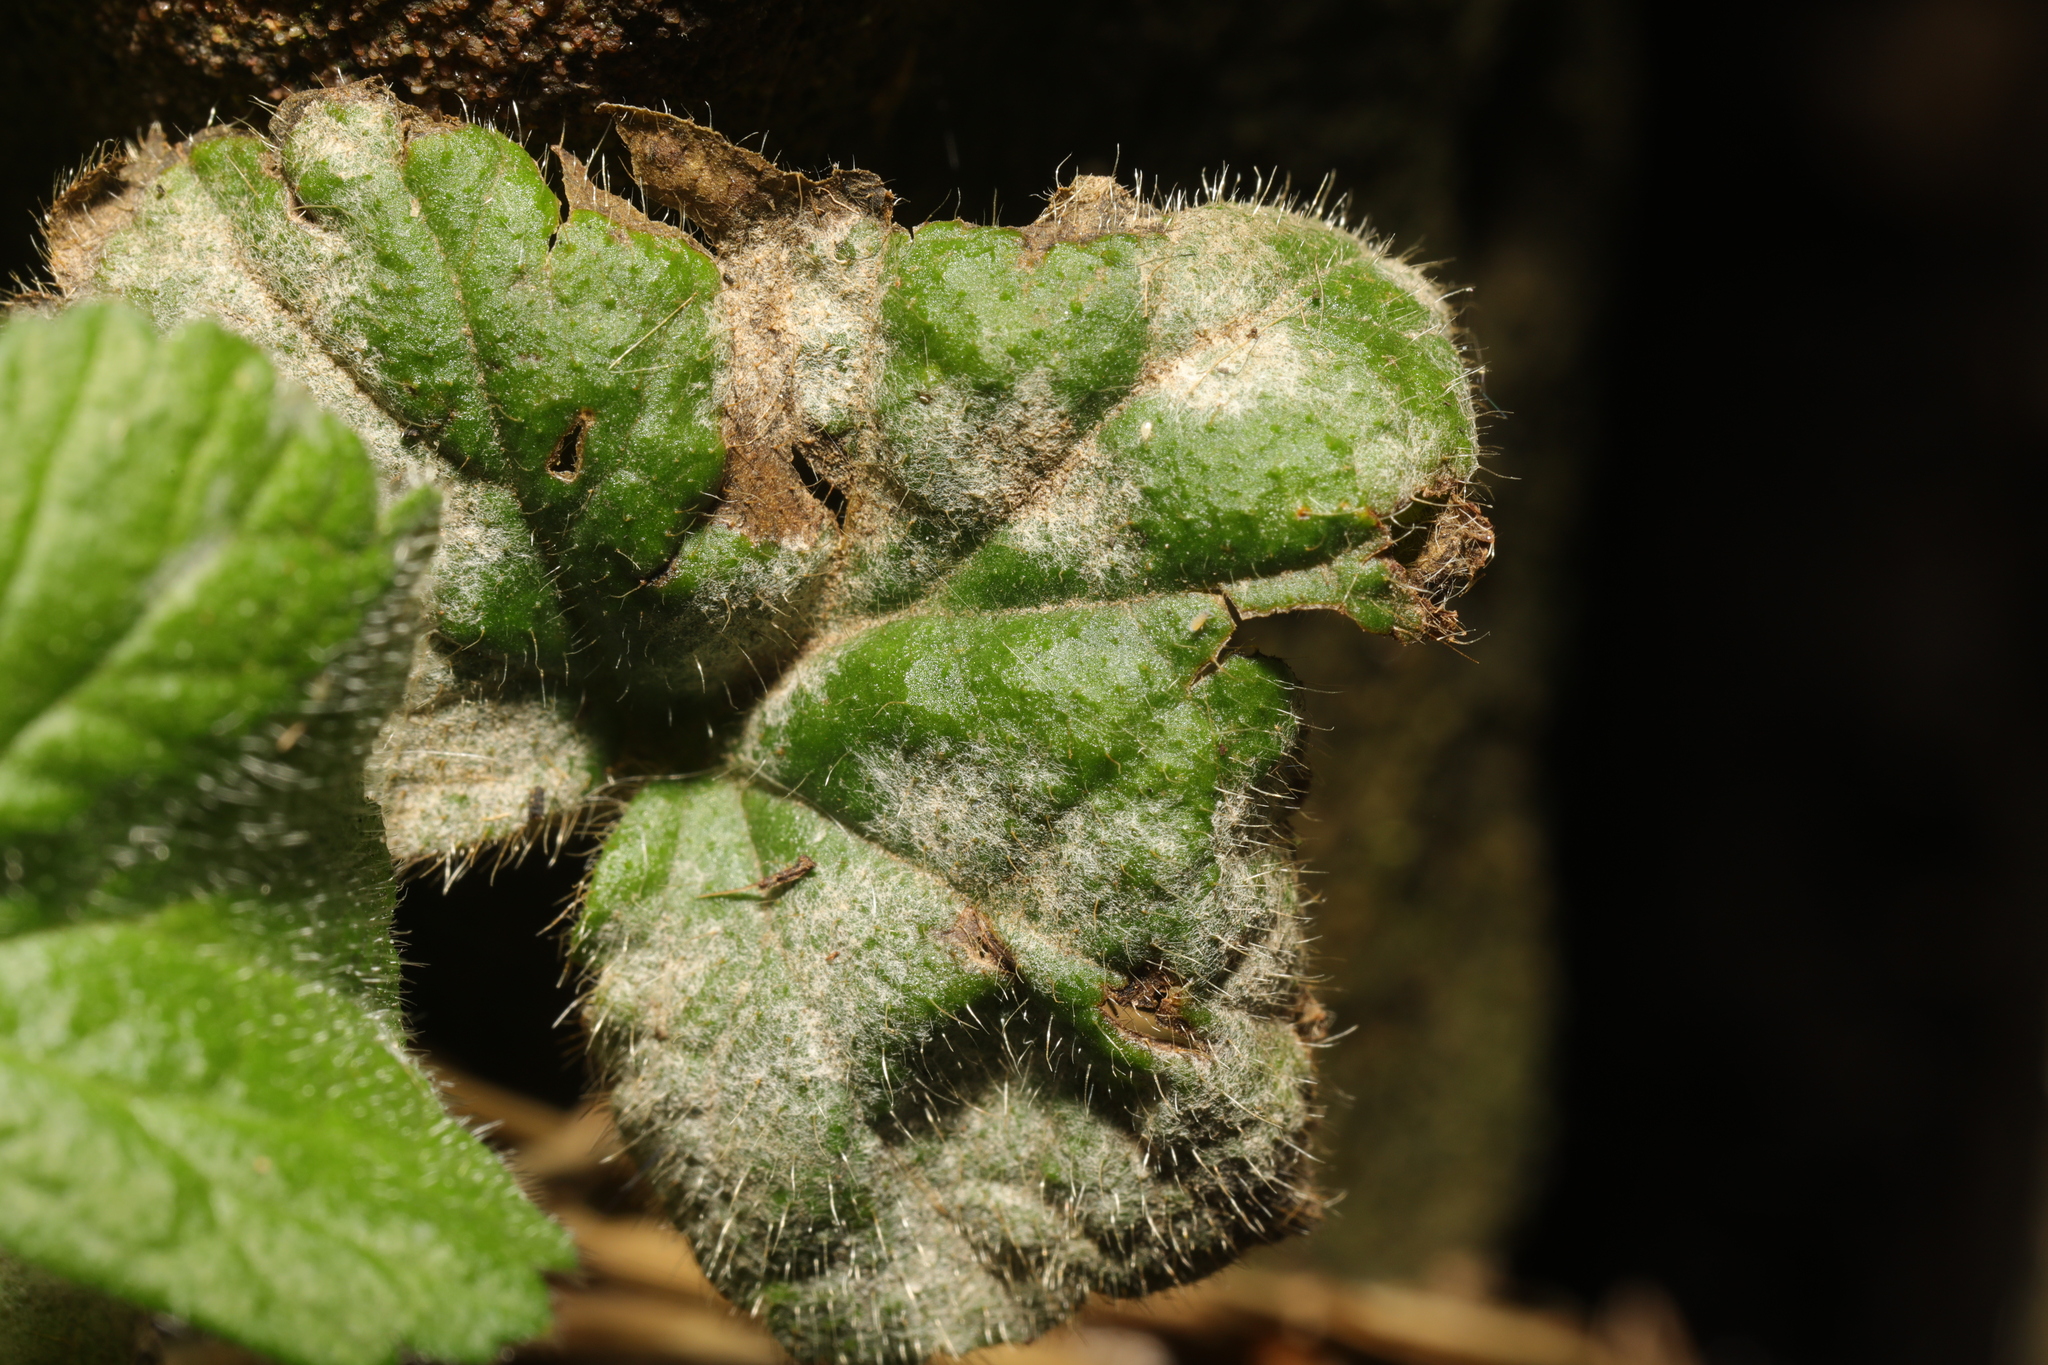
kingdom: Fungi
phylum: Ascomycota
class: Leotiomycetes
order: Helotiales
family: Erysiphaceae
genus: Podosphaera
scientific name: Podosphaera aphanis
